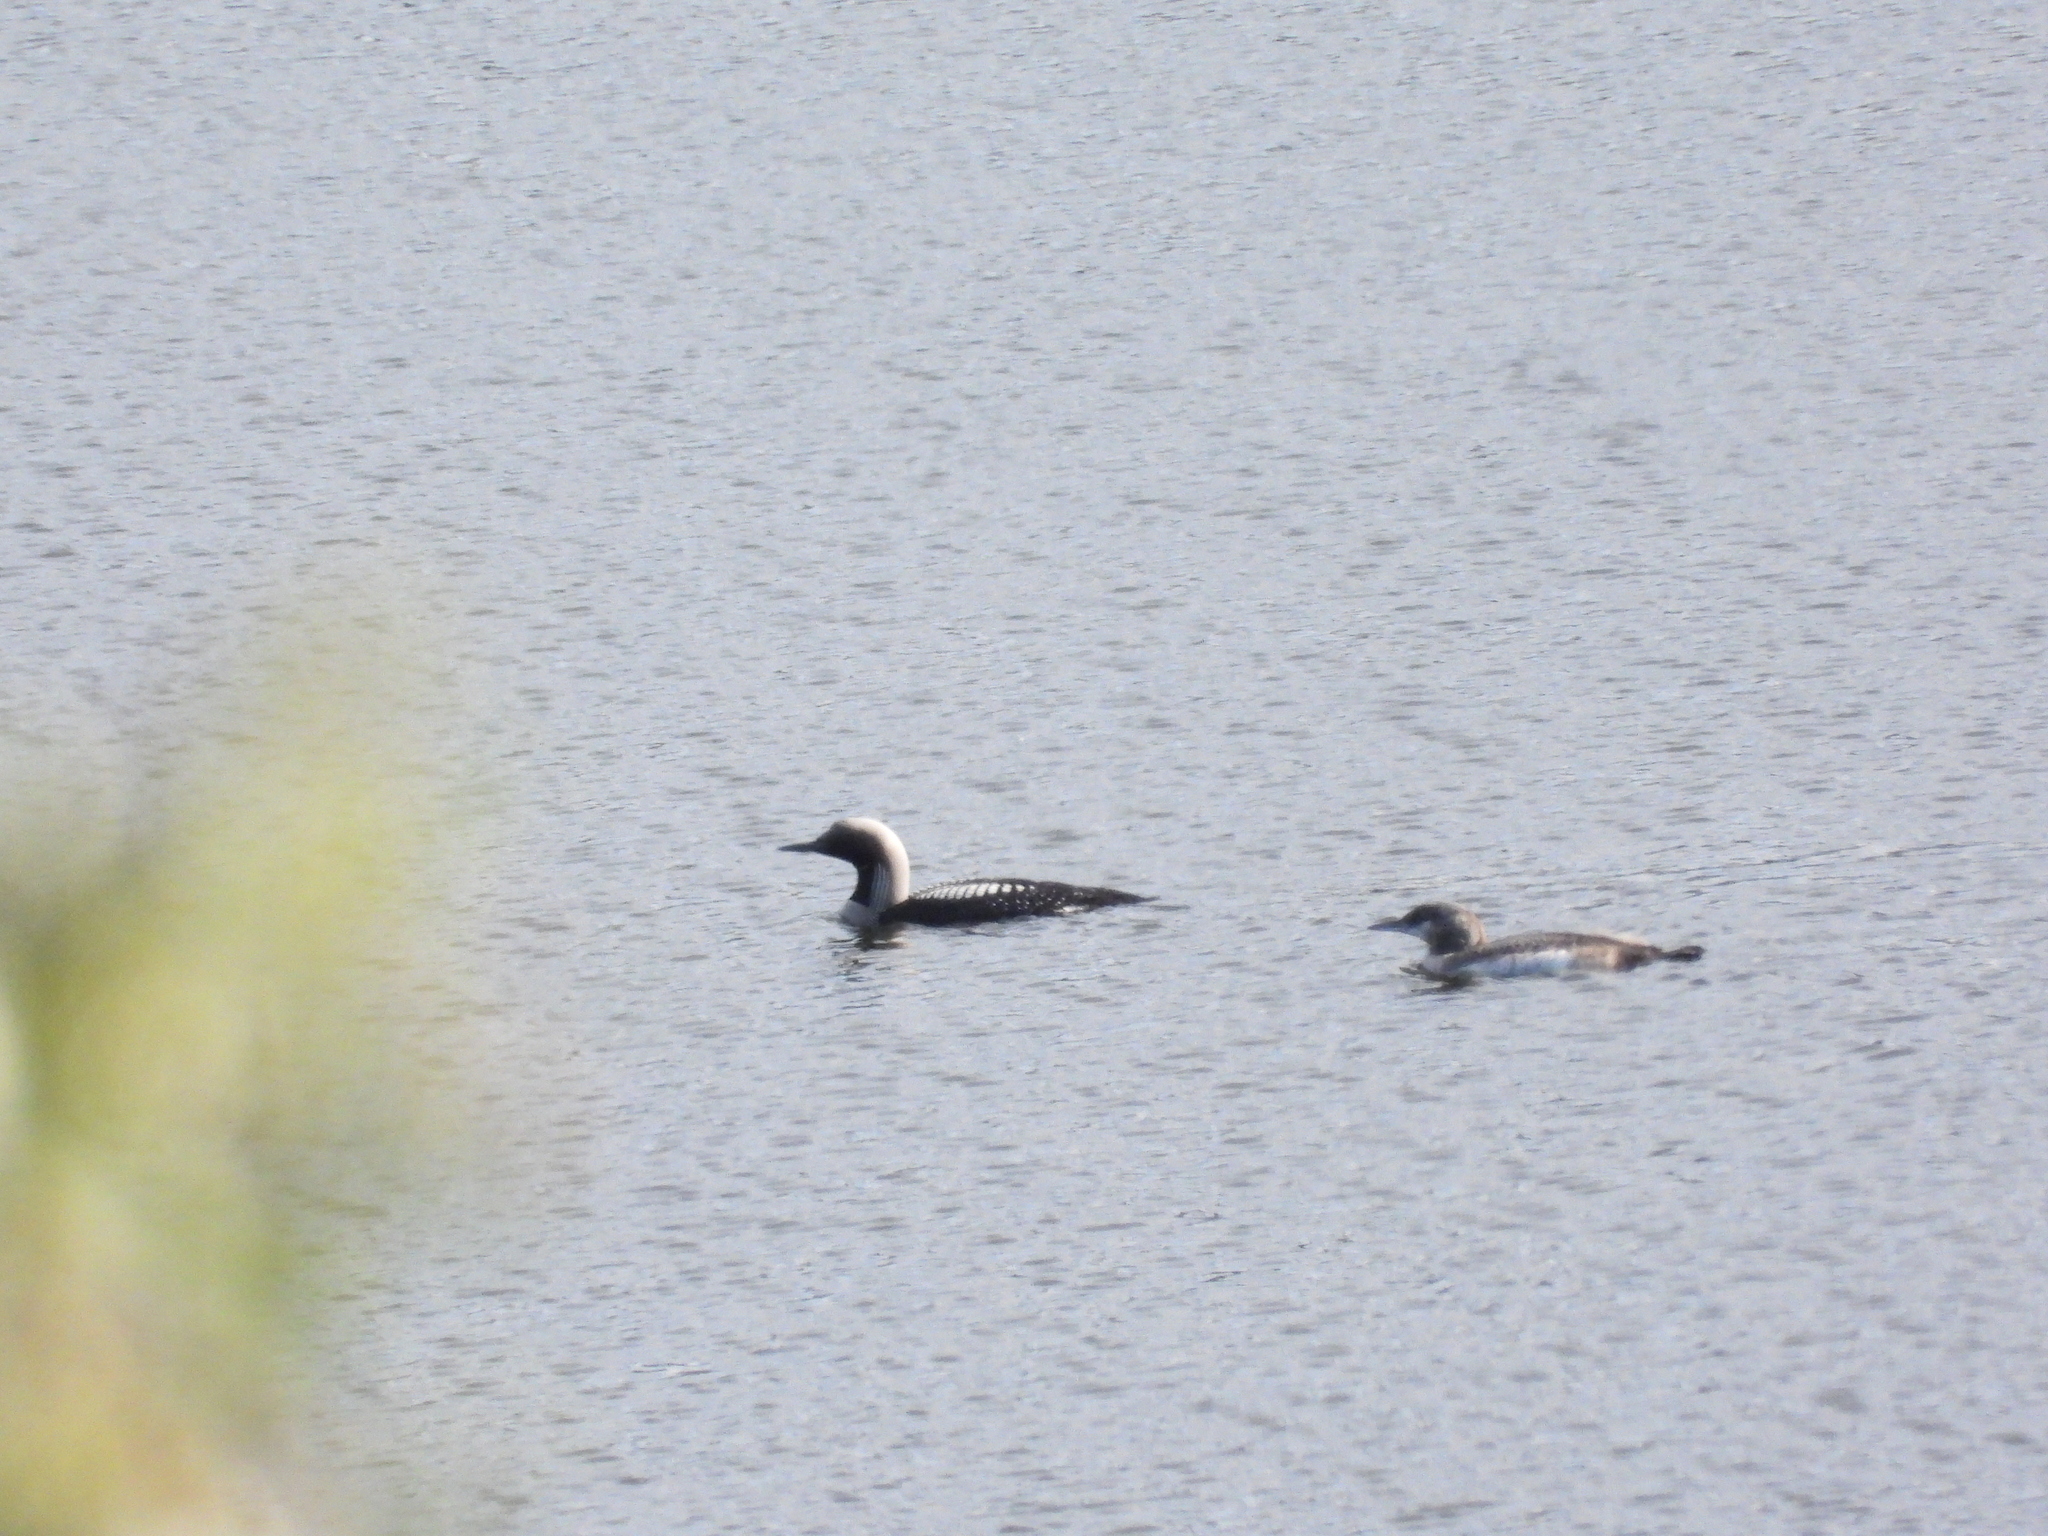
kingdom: Animalia
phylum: Chordata
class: Aves
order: Gaviiformes
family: Gaviidae
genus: Gavia
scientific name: Gavia arctica
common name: Black-throated loon
